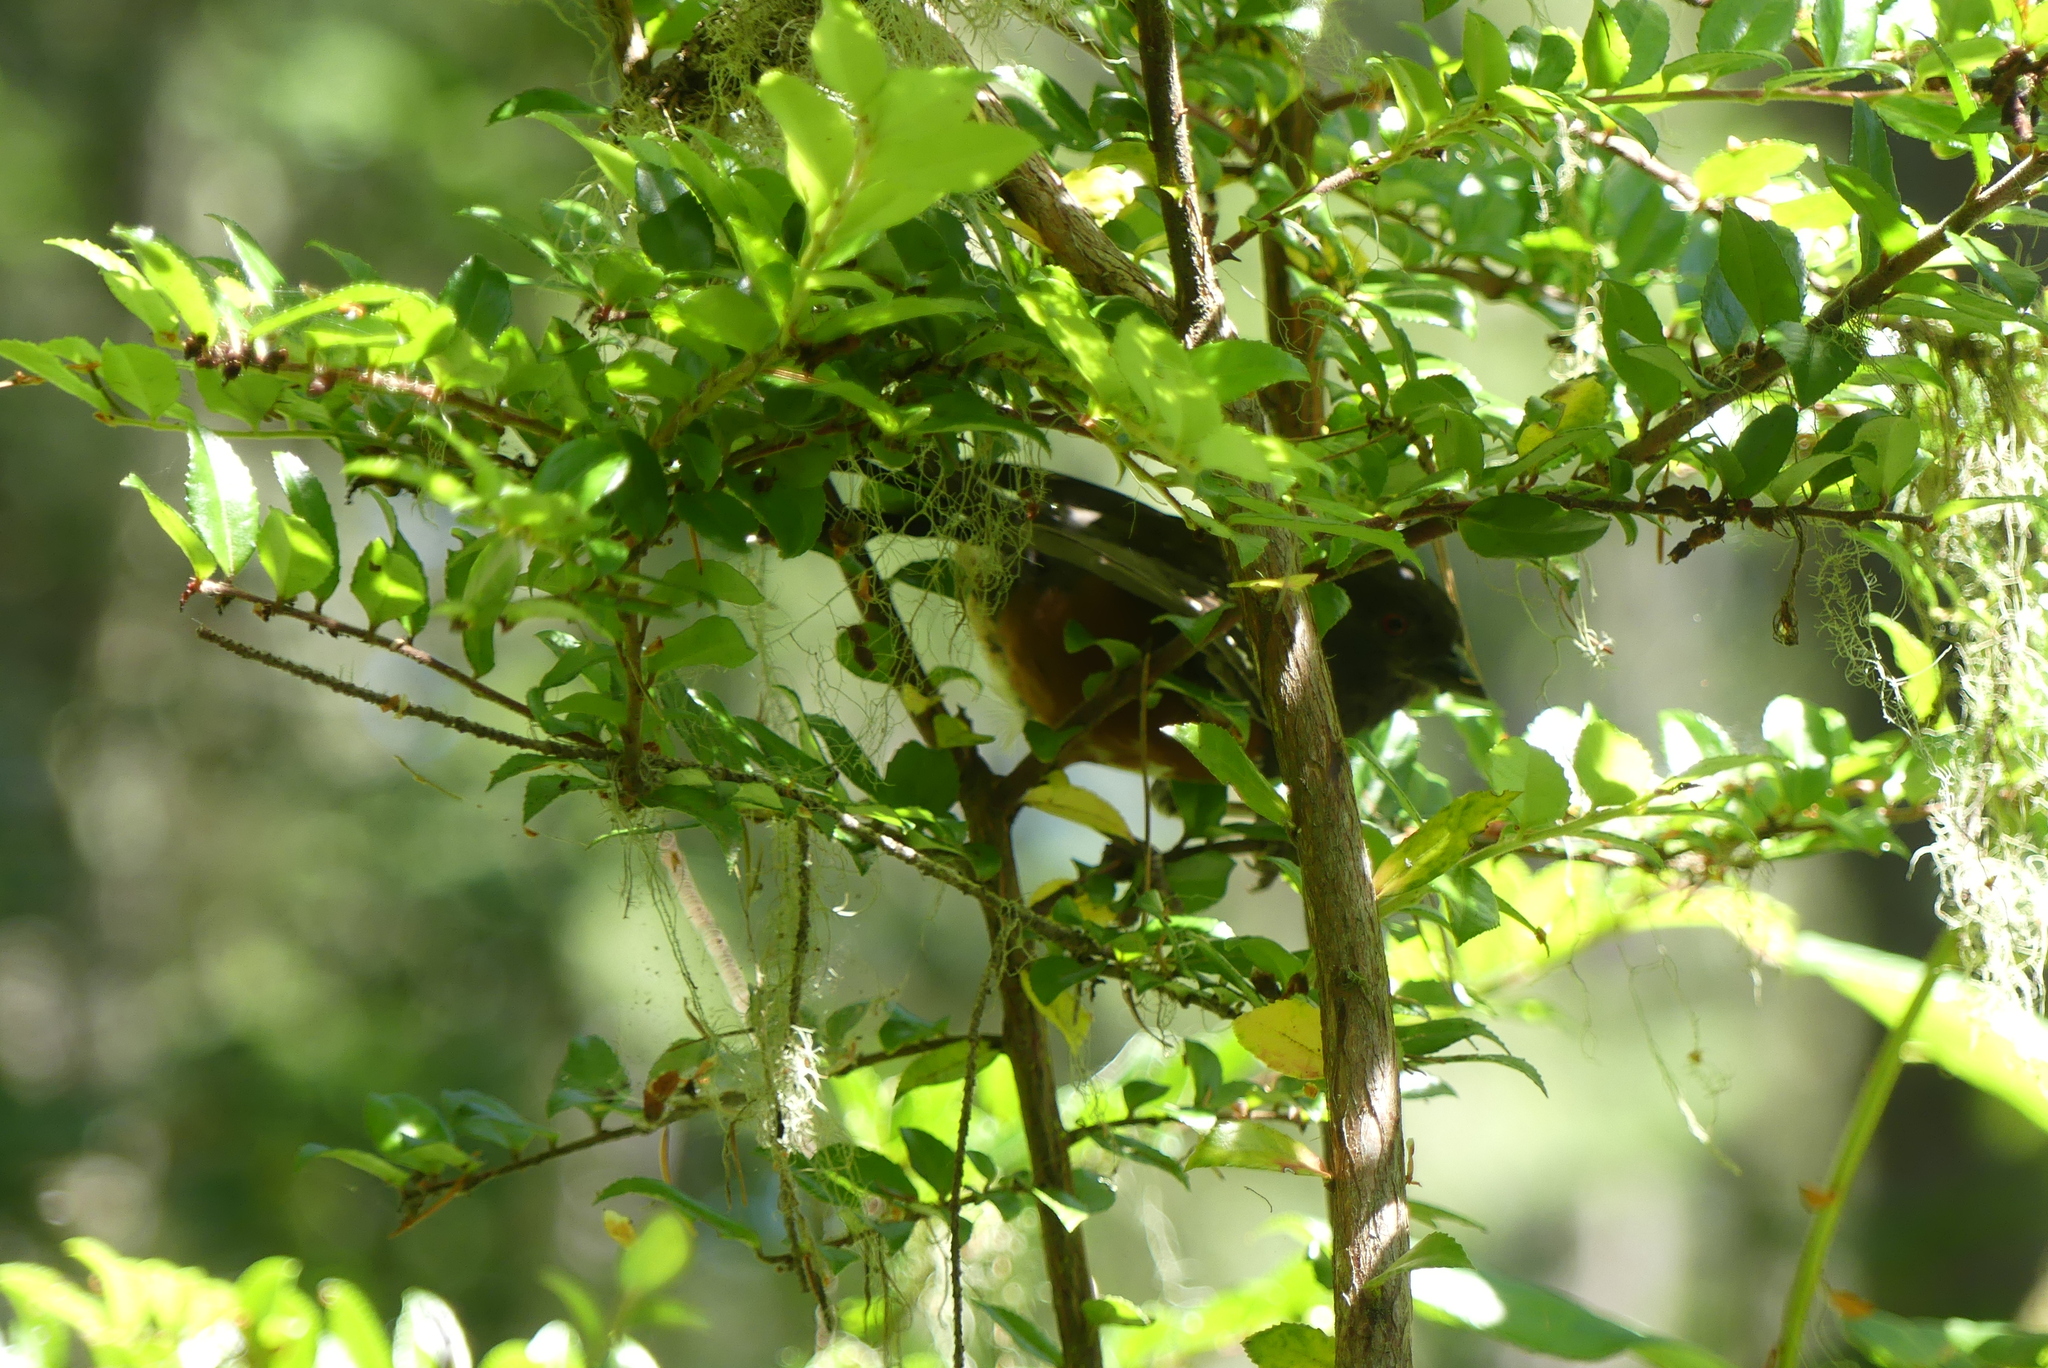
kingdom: Animalia
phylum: Chordata
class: Aves
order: Passeriformes
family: Passerellidae
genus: Pipilo
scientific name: Pipilo maculatus
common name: Spotted towhee
